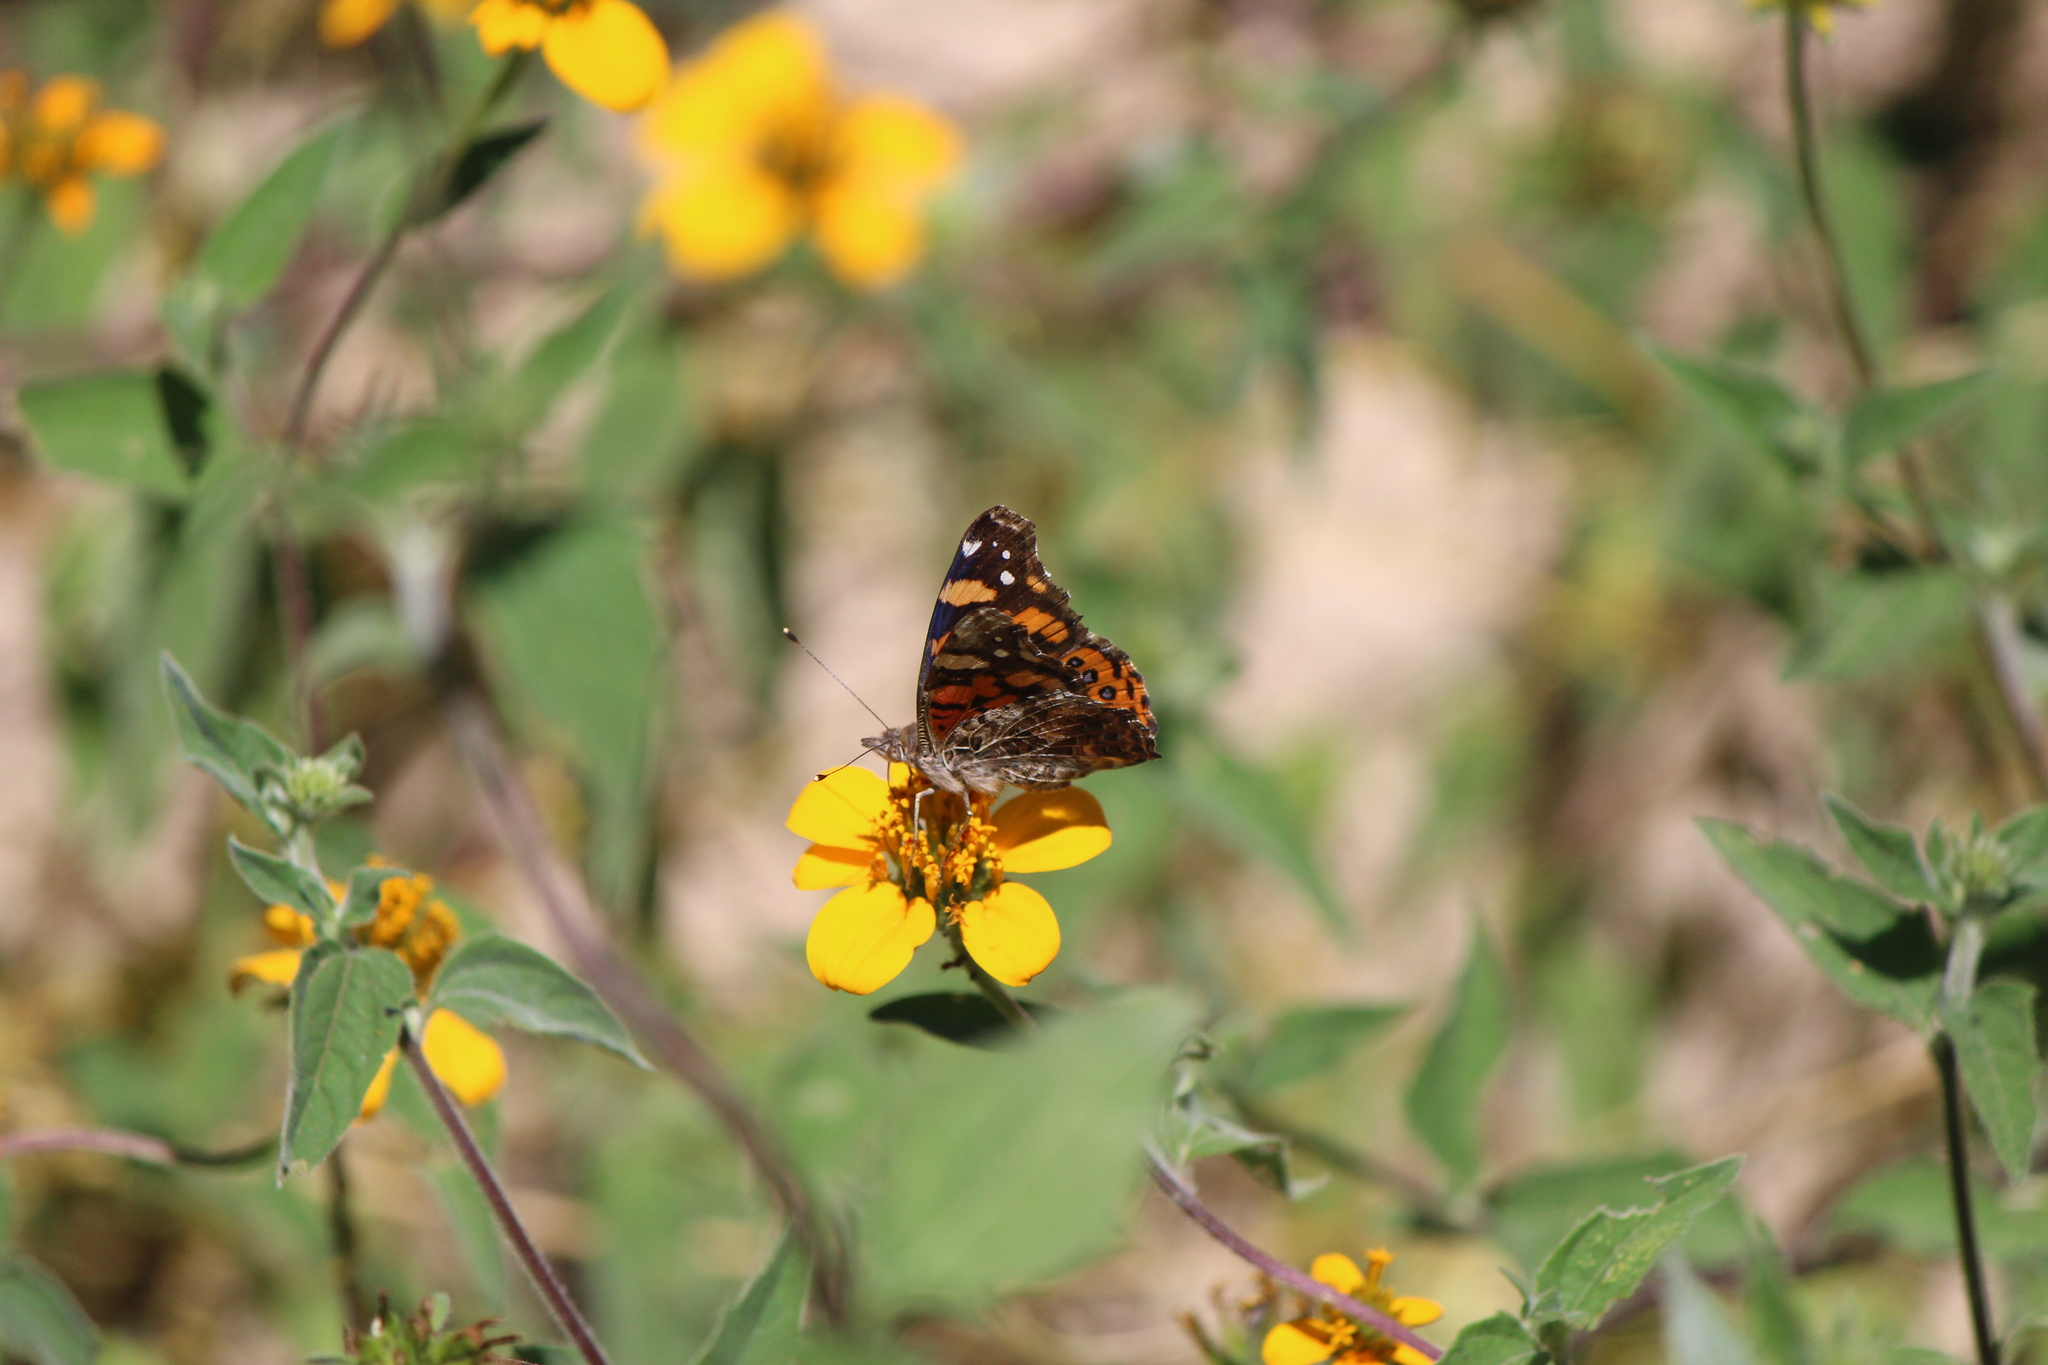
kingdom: Animalia
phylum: Arthropoda
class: Insecta
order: Lepidoptera
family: Nymphalidae
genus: Vanessa
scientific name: Vanessa annabella
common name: West coast lady
